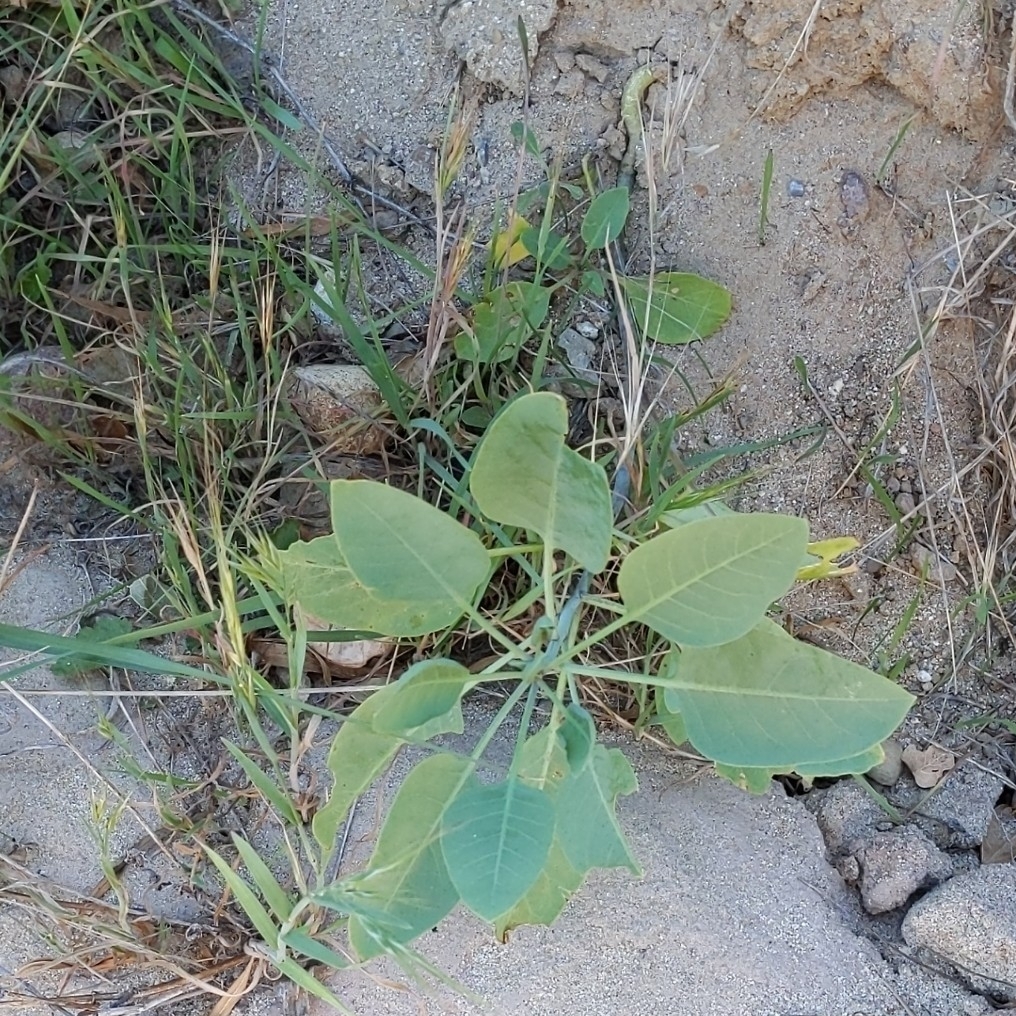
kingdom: Plantae
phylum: Tracheophyta
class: Magnoliopsida
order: Solanales
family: Solanaceae
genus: Nicotiana
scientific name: Nicotiana glauca
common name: Tree tobacco
